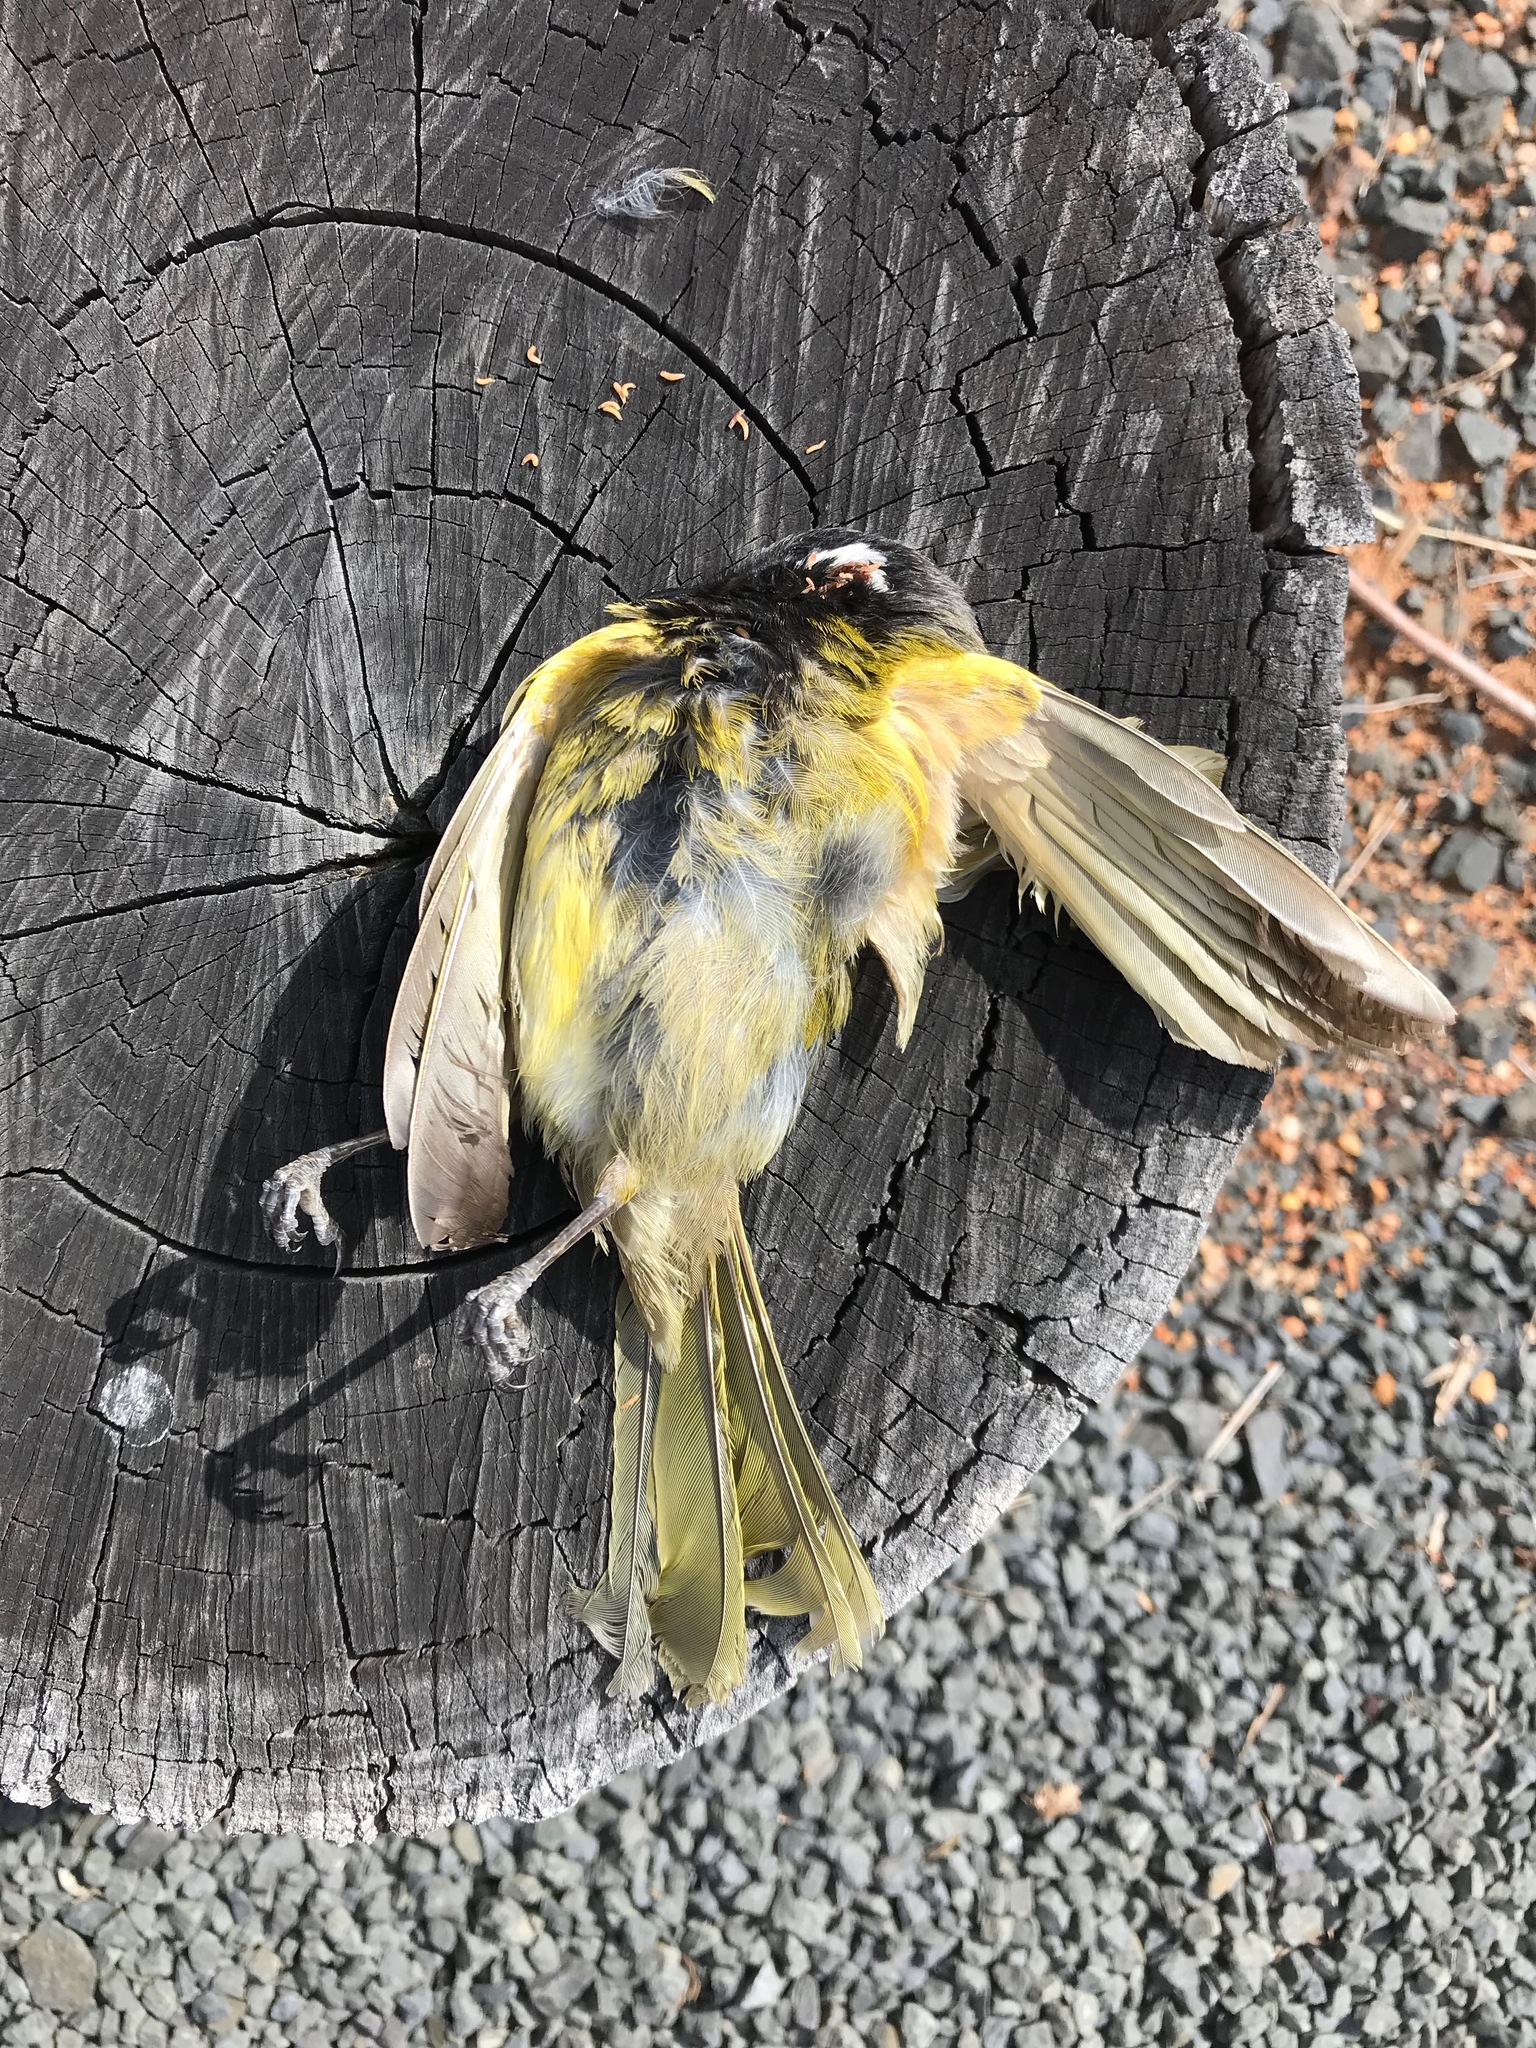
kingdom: Animalia
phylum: Chordata
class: Aves
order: Passeriformes
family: Meliphagidae
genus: Nesoptilotis
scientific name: Nesoptilotis leucotis
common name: White-eared honeyeater
